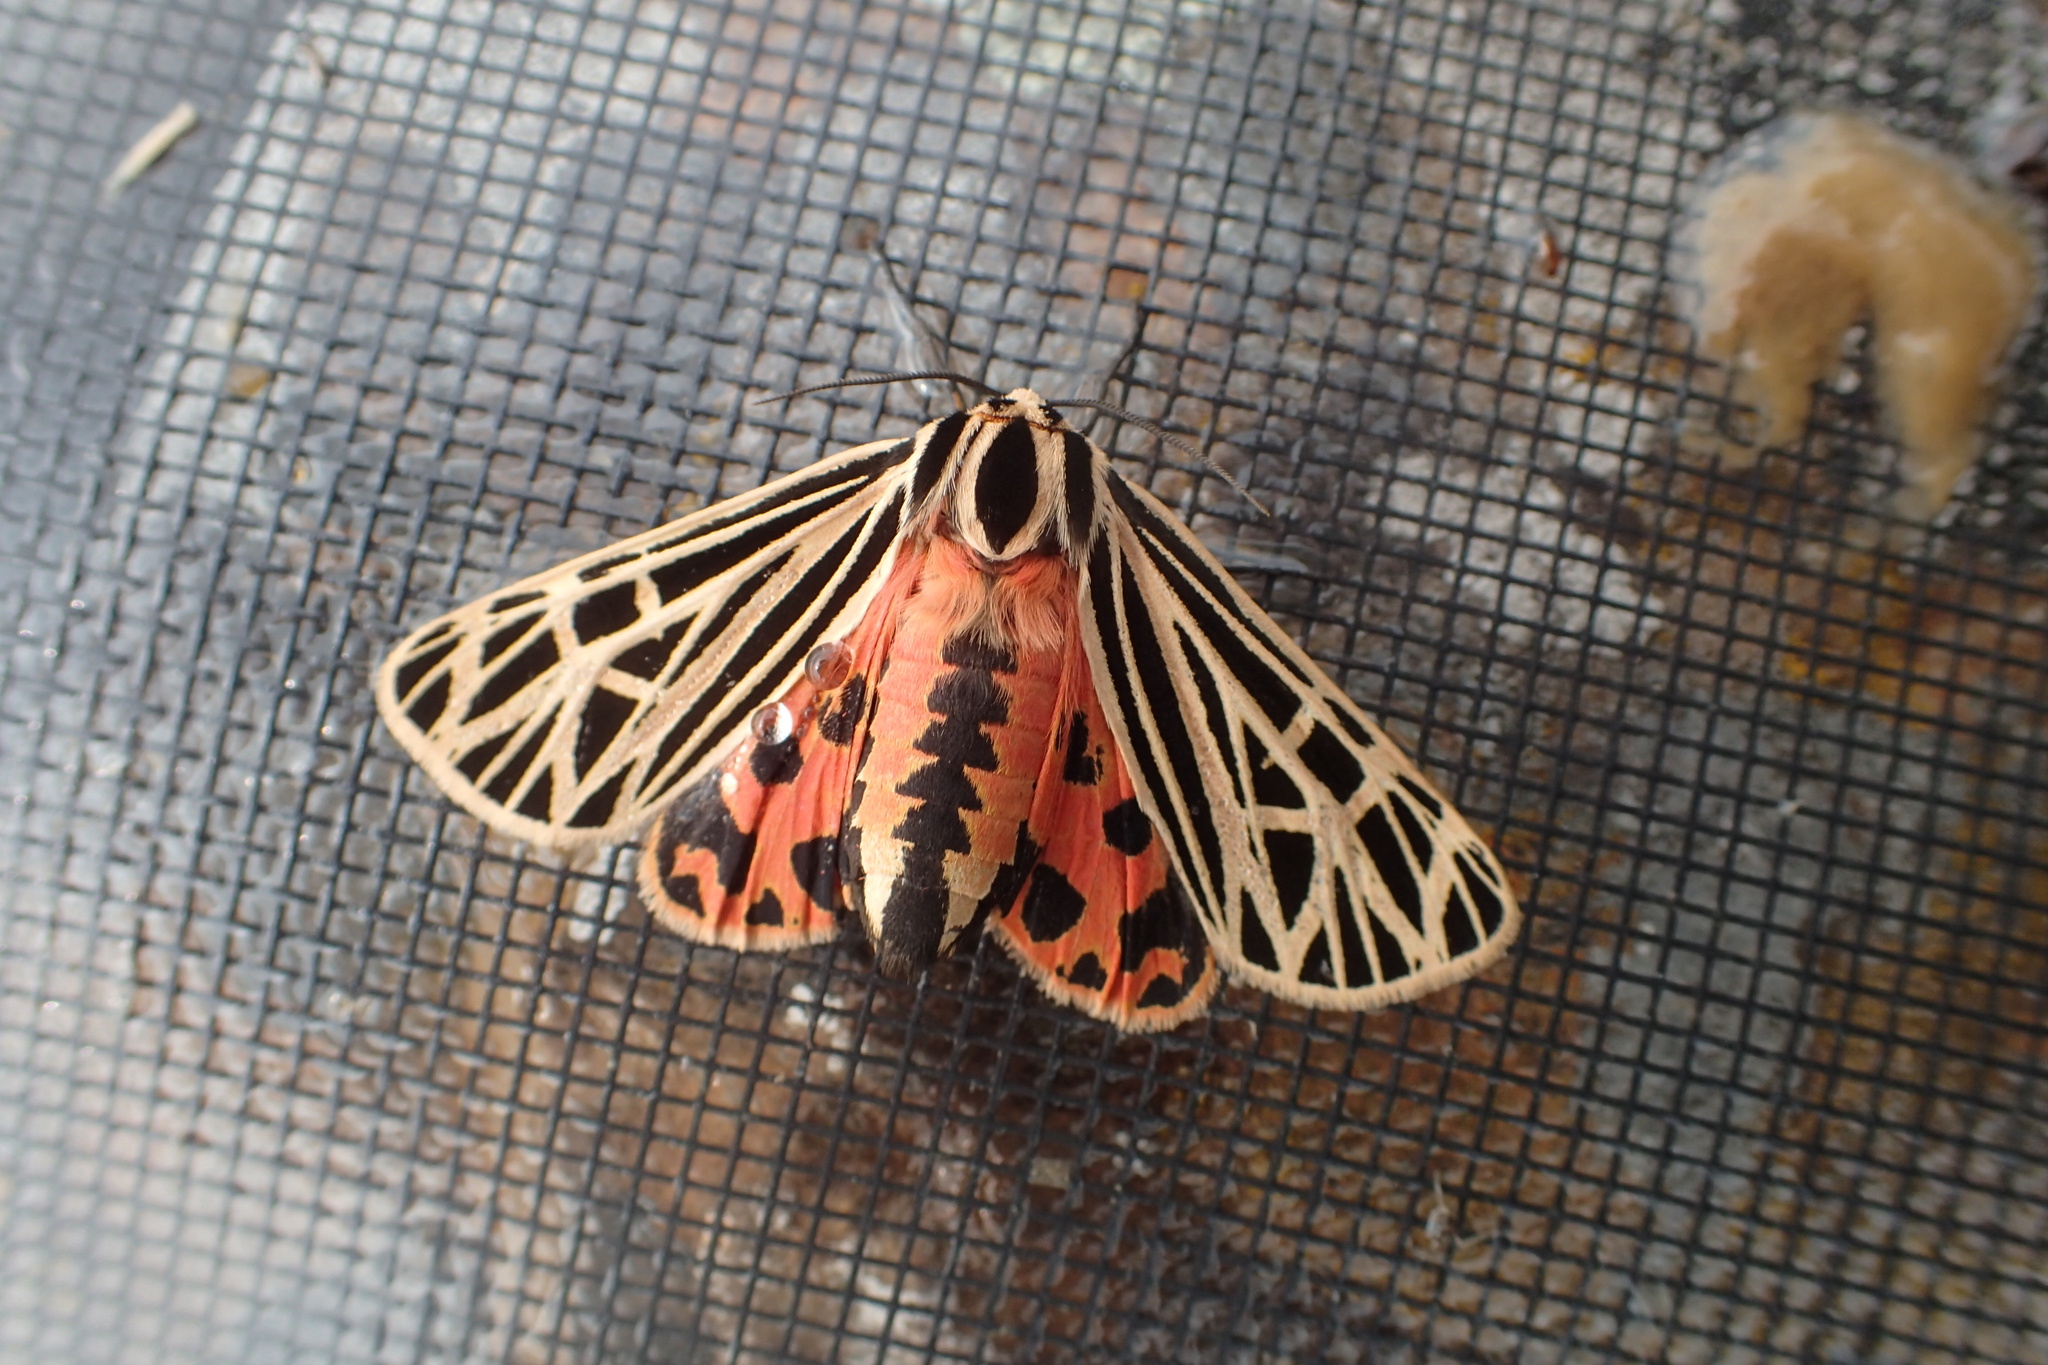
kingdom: Animalia
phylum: Arthropoda
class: Insecta
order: Lepidoptera
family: Erebidae
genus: Grammia
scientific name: Grammia virgo
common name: Virgin tiger moth
